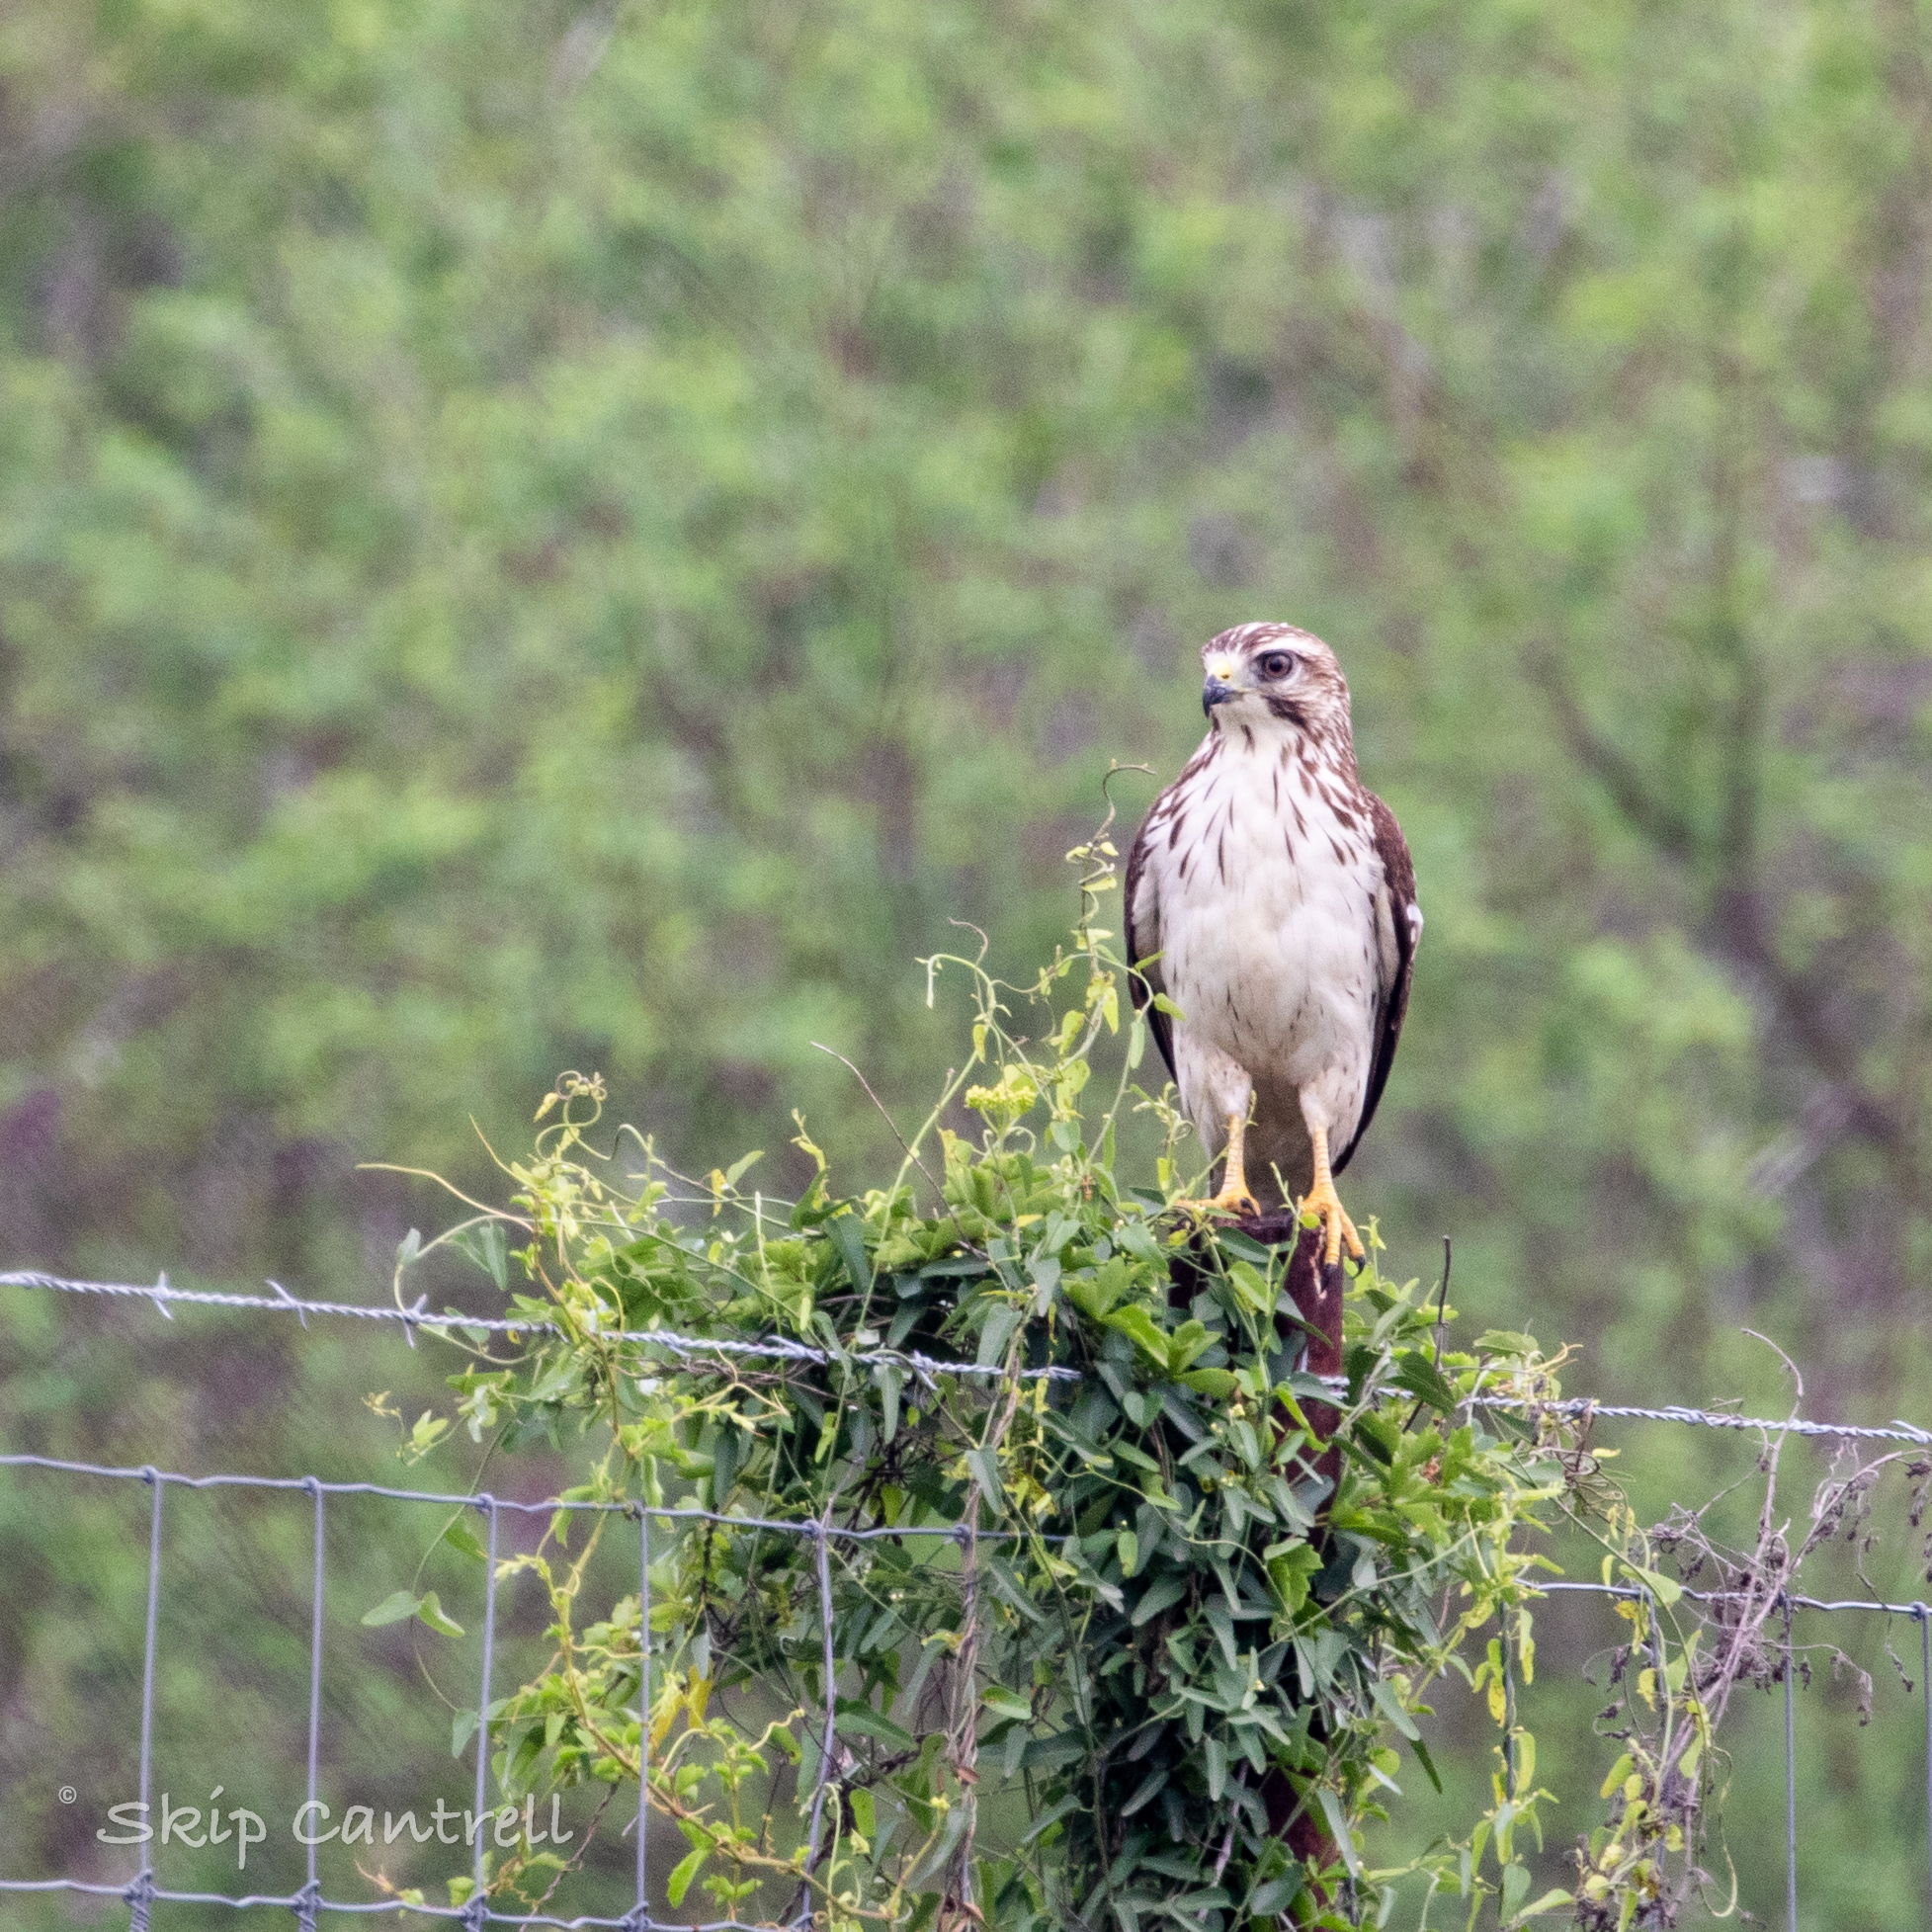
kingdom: Animalia
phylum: Chordata
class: Aves
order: Accipitriformes
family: Accipitridae
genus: Buteo
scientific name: Buteo platypterus
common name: Broad-winged hawk
